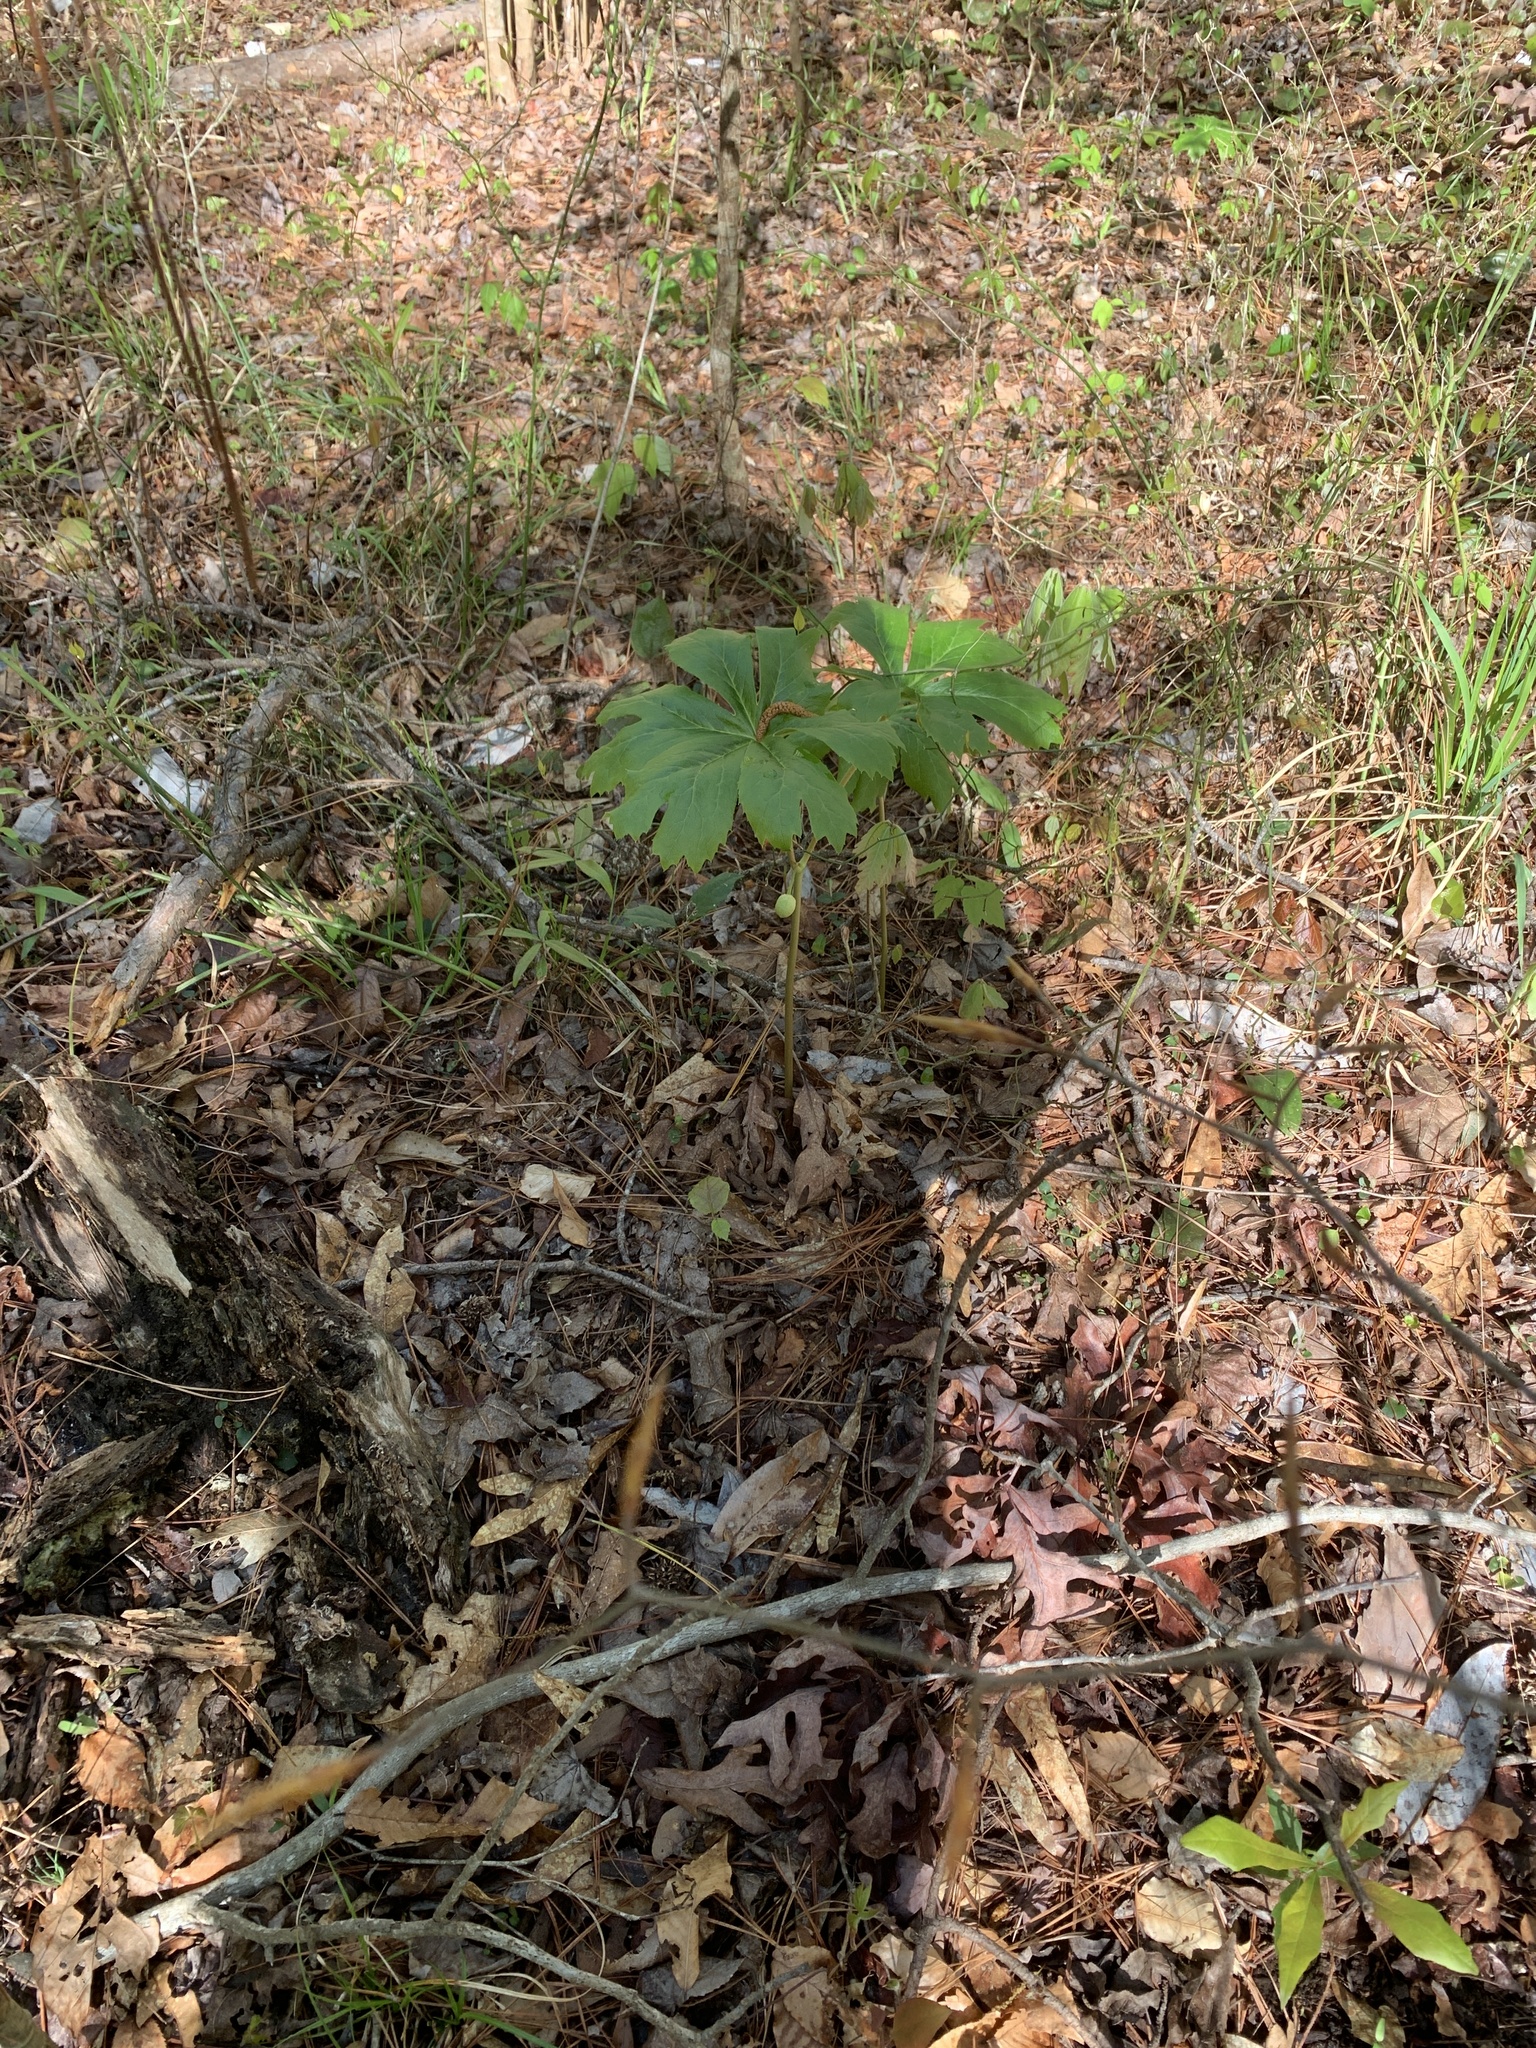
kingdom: Plantae
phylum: Tracheophyta
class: Magnoliopsida
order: Ranunculales
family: Berberidaceae
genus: Podophyllum
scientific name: Podophyllum peltatum
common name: Wild mandrake
